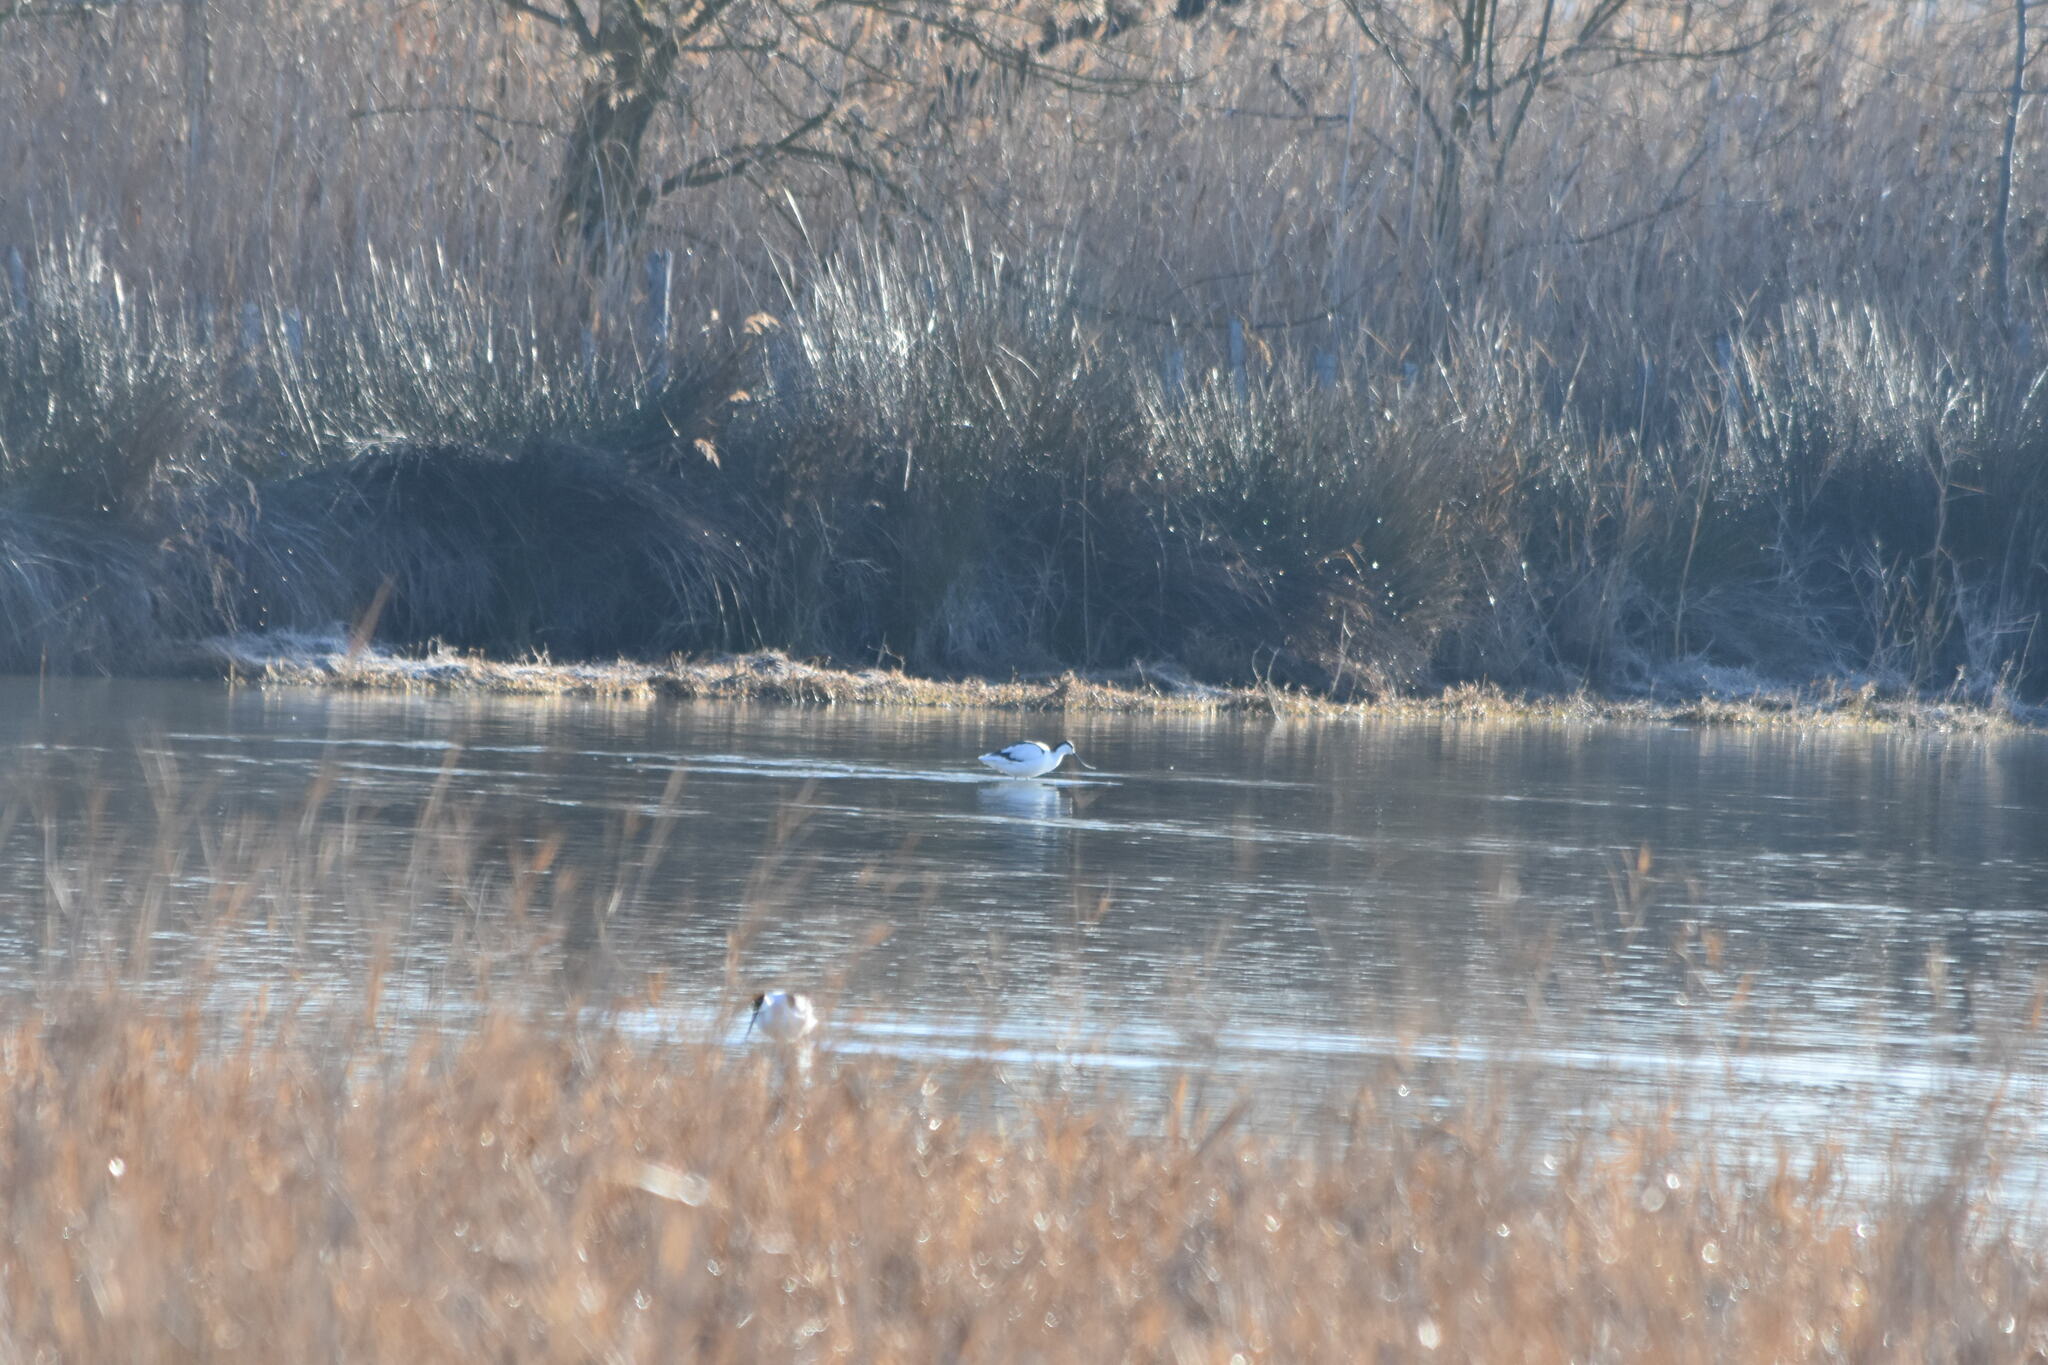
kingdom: Animalia
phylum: Chordata
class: Aves
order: Charadriiformes
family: Recurvirostridae
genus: Recurvirostra
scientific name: Recurvirostra avosetta
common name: Pied avocet
